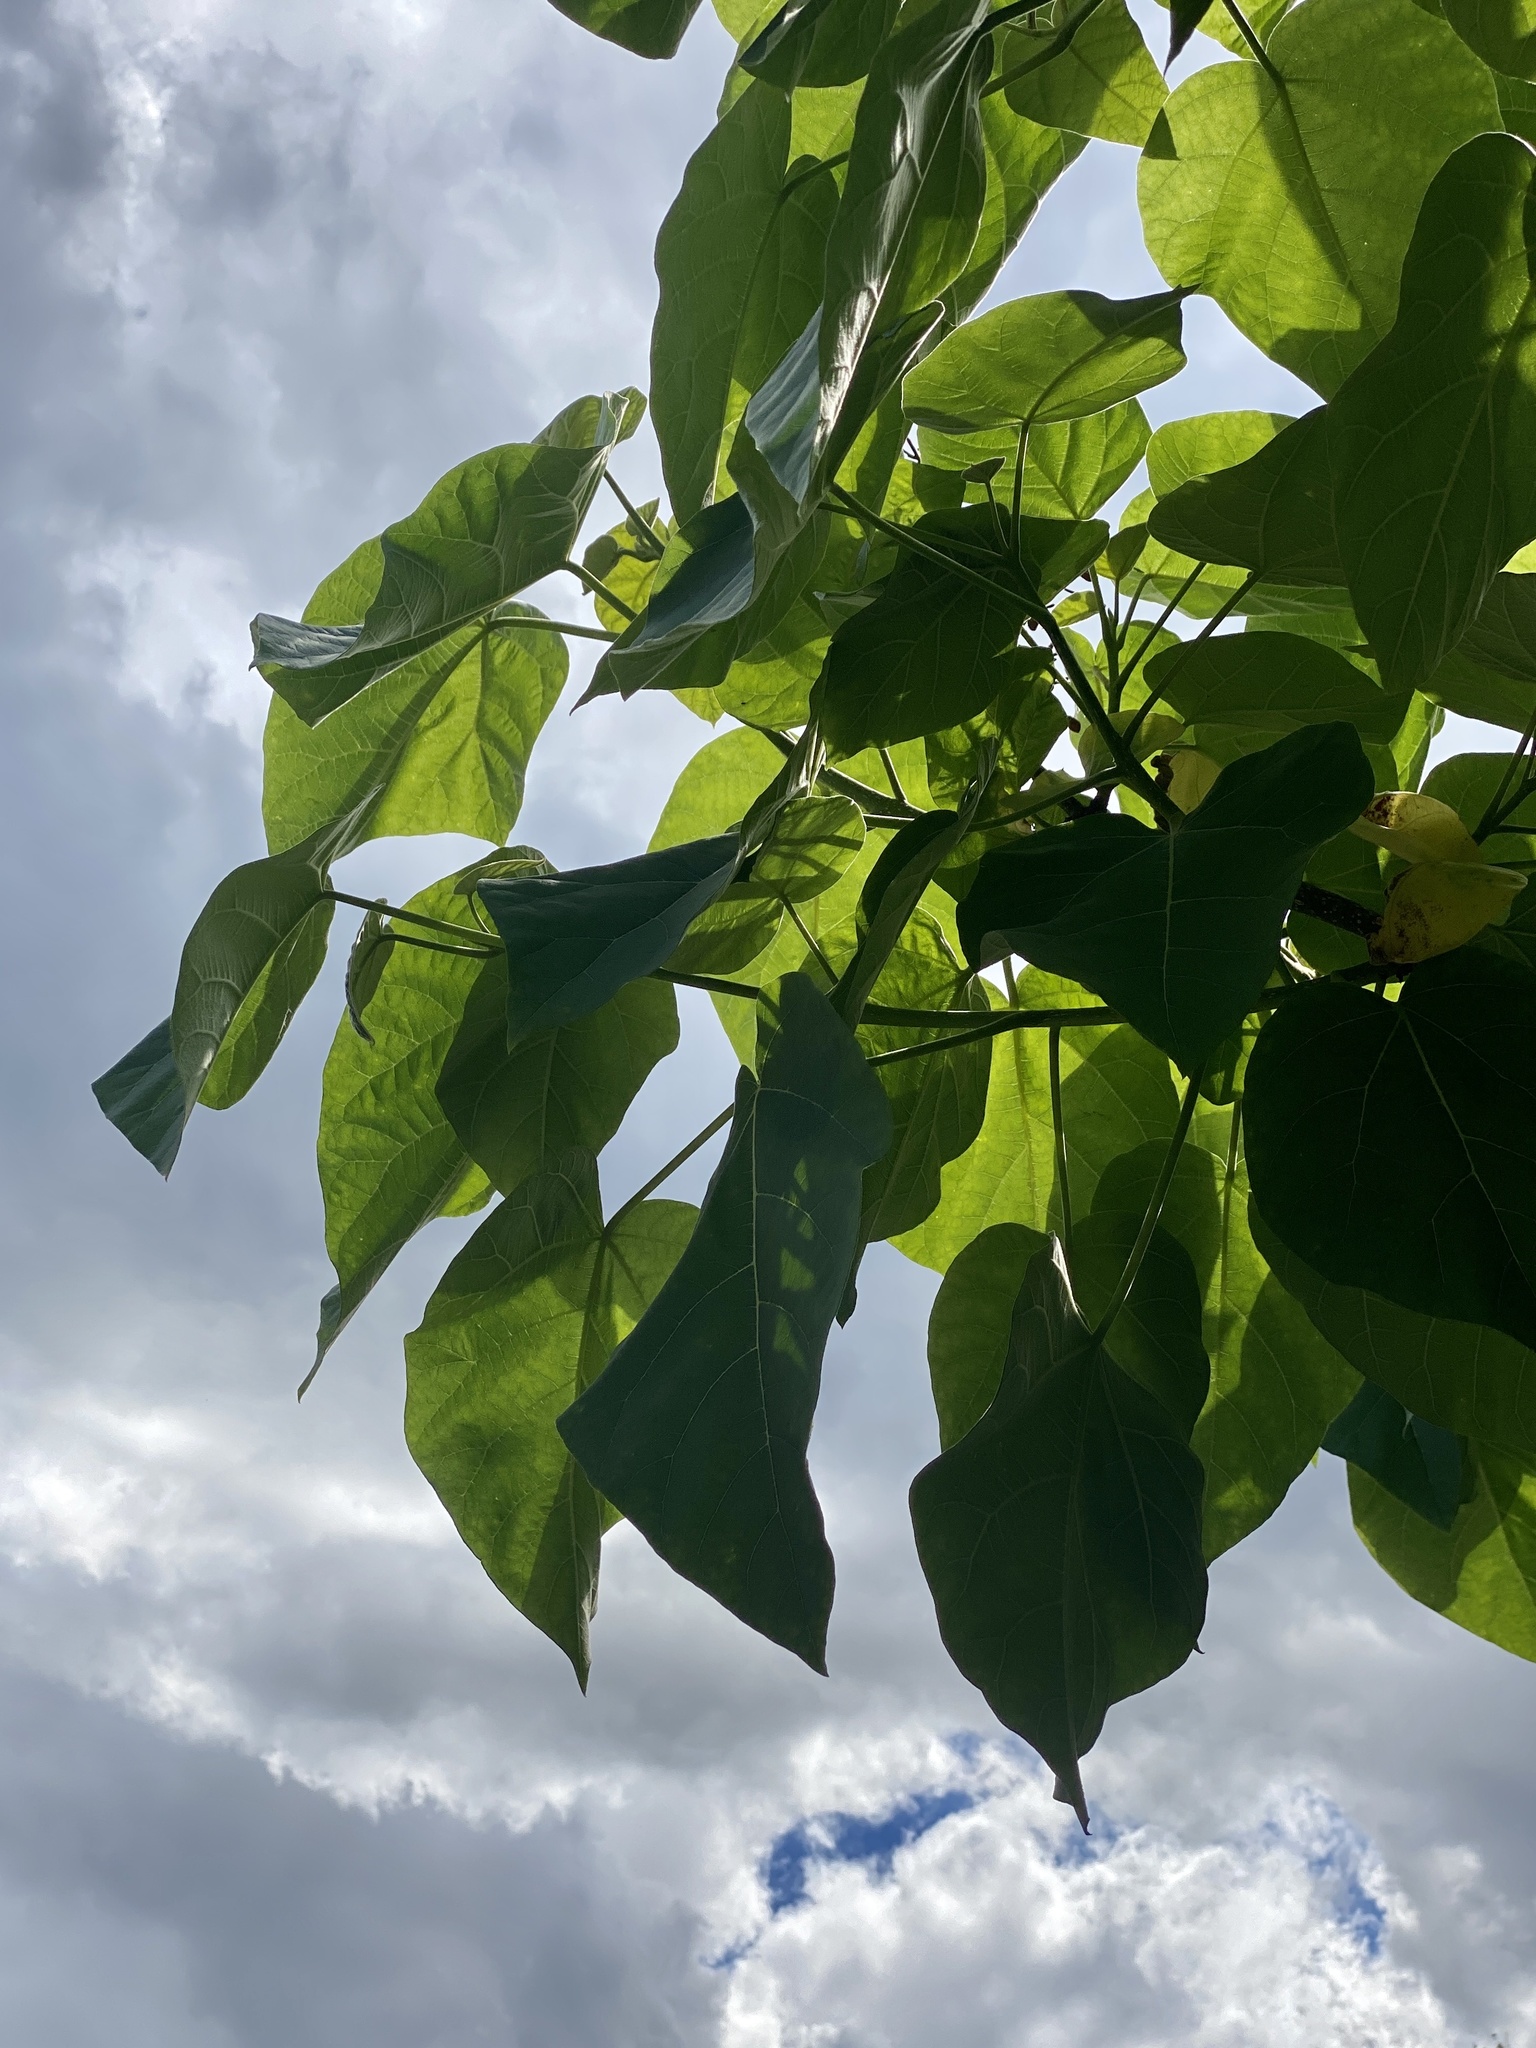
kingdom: Plantae
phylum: Tracheophyta
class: Magnoliopsida
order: Lamiales
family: Paulowniaceae
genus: Paulownia
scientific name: Paulownia tomentosa
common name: Foxglove-tree
